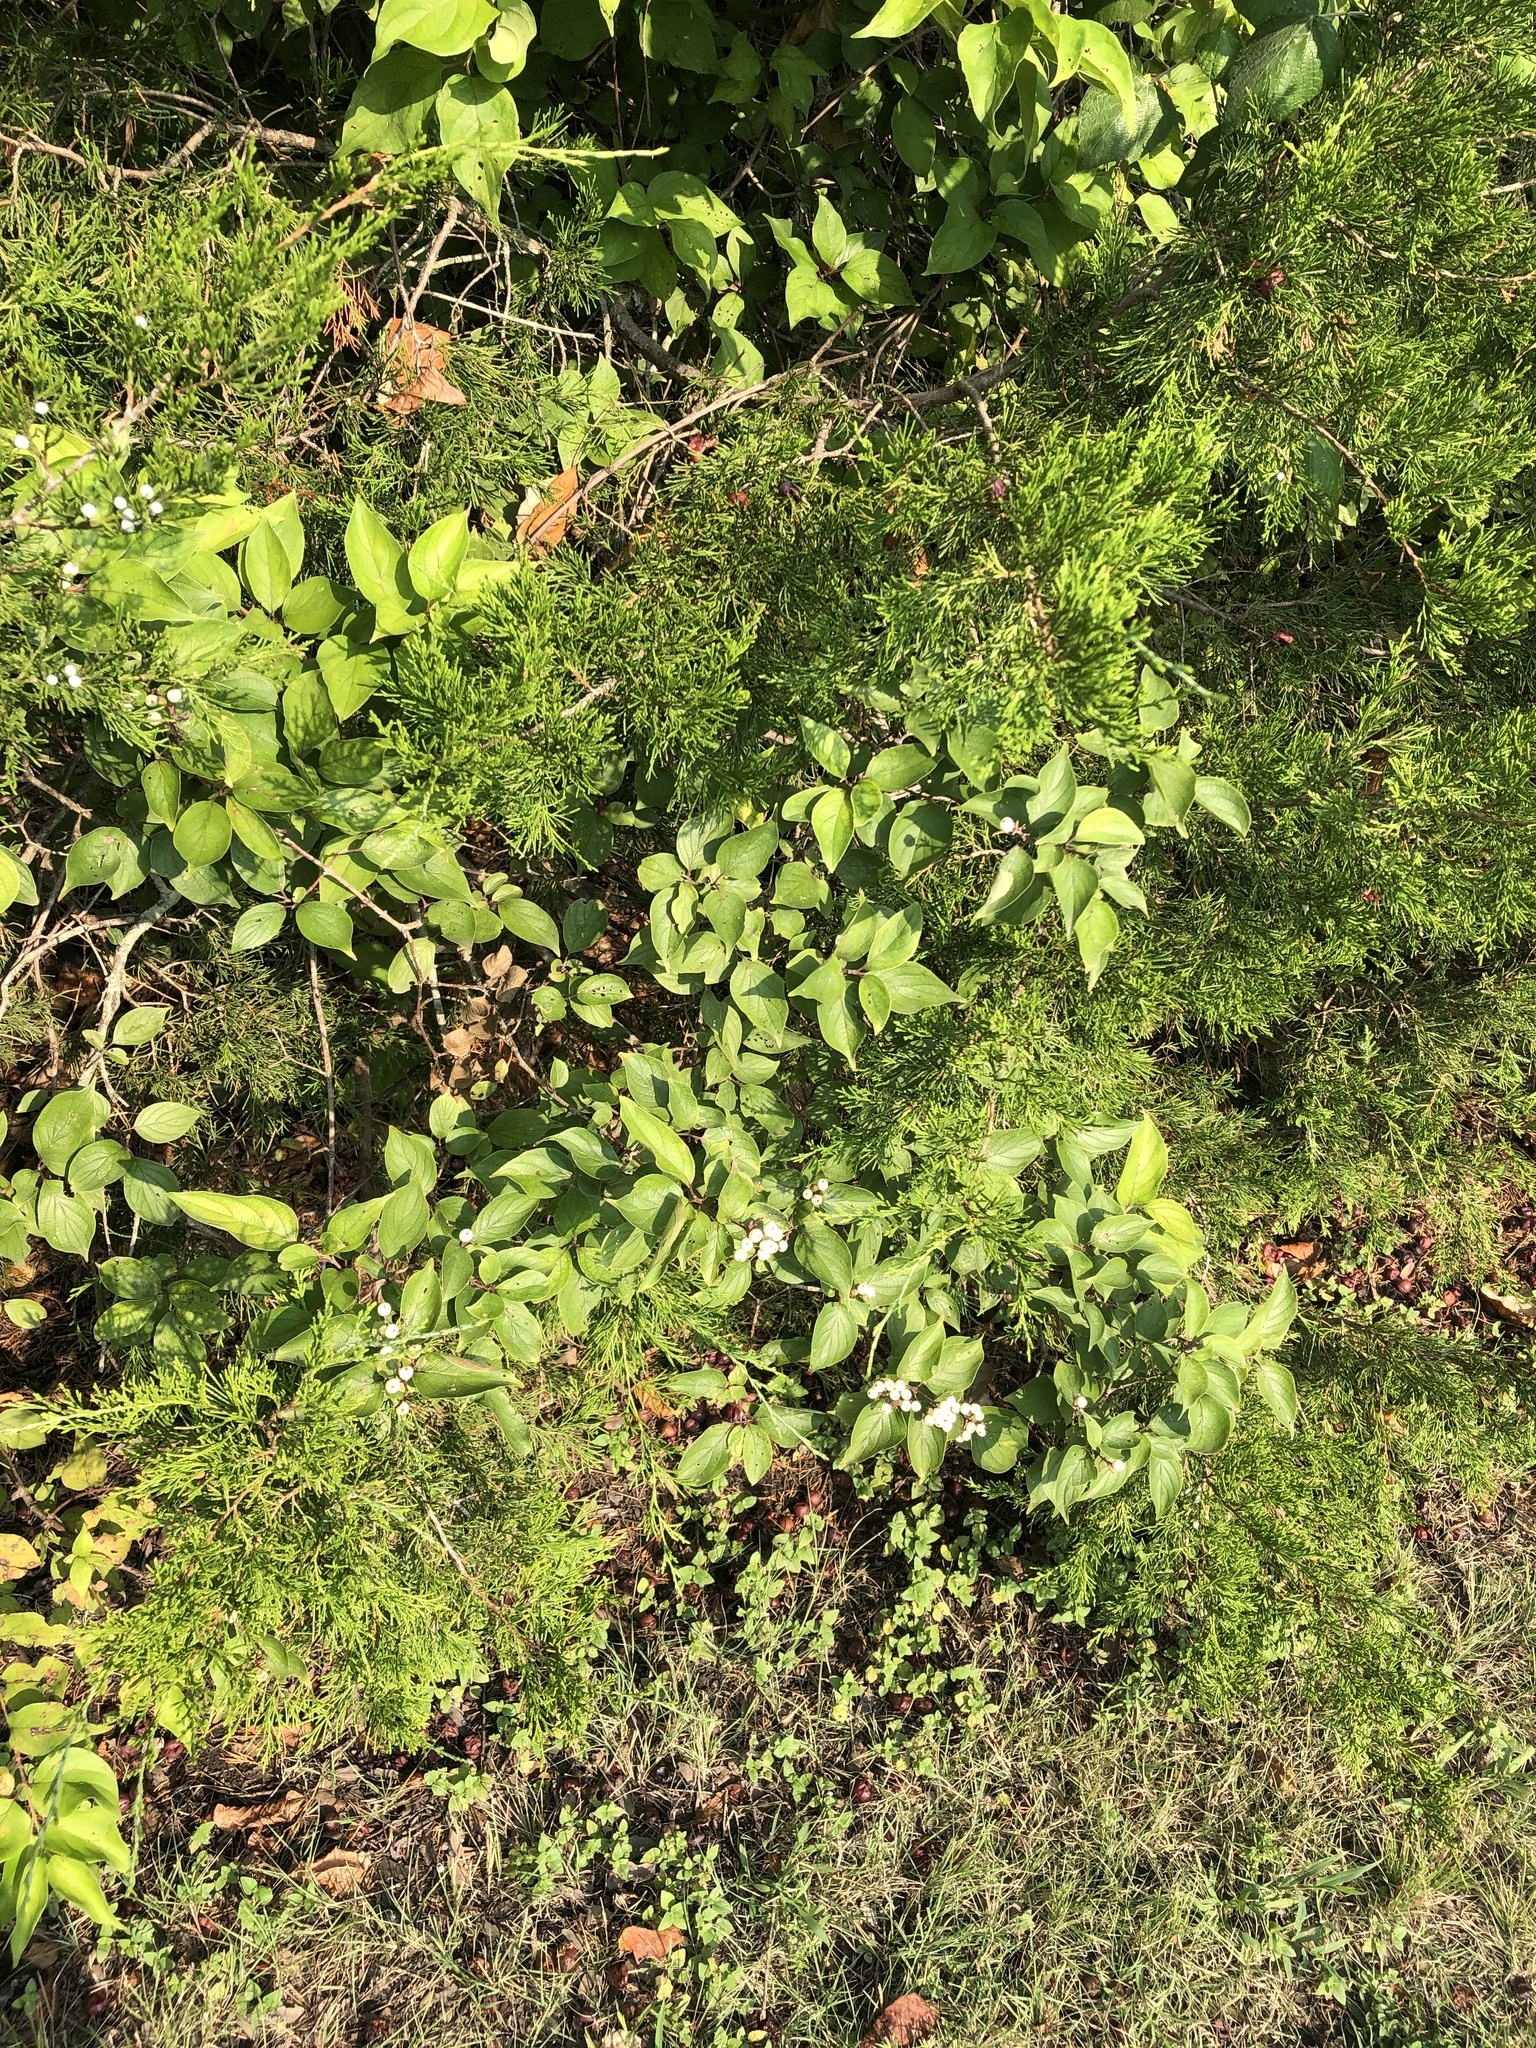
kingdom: Plantae
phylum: Tracheophyta
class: Magnoliopsida
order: Cornales
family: Cornaceae
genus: Cornus
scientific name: Cornus drummondii
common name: Rough-leaf dogwood
